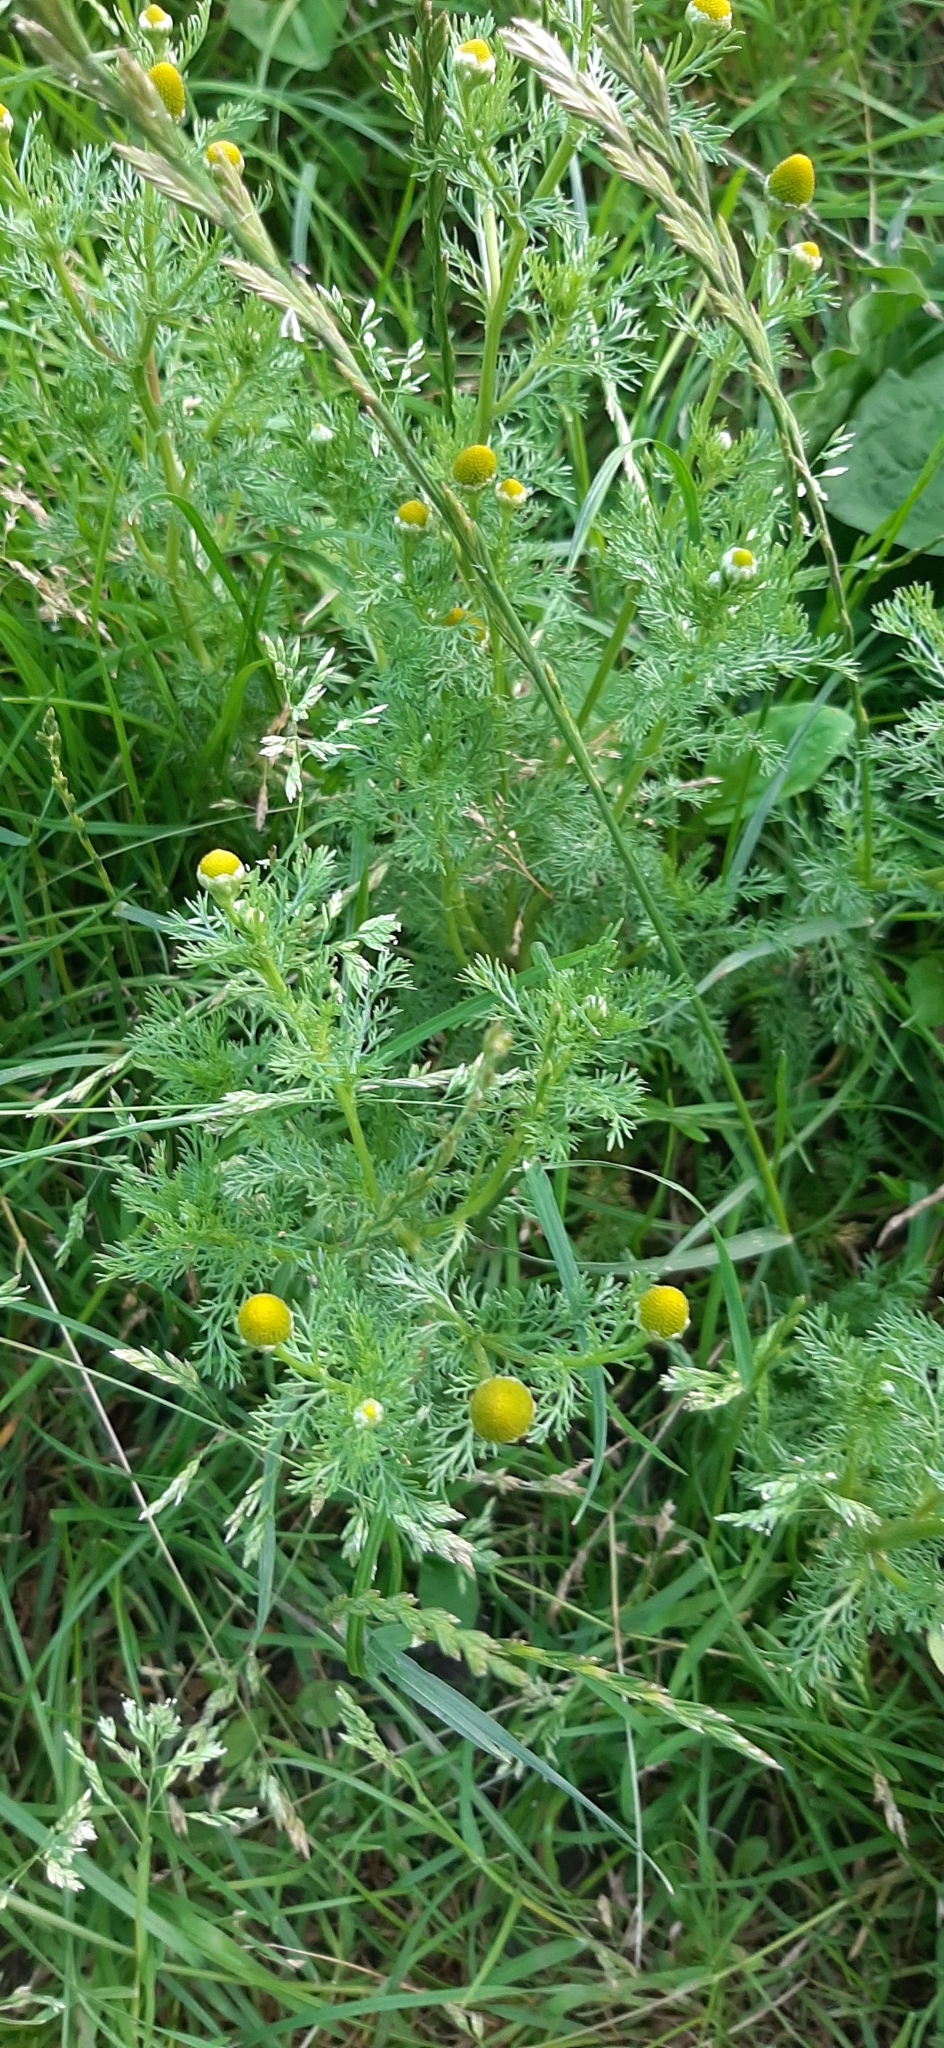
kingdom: Plantae
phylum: Tracheophyta
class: Magnoliopsida
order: Asterales
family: Asteraceae
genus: Matricaria
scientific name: Matricaria discoidea
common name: Disc mayweed
